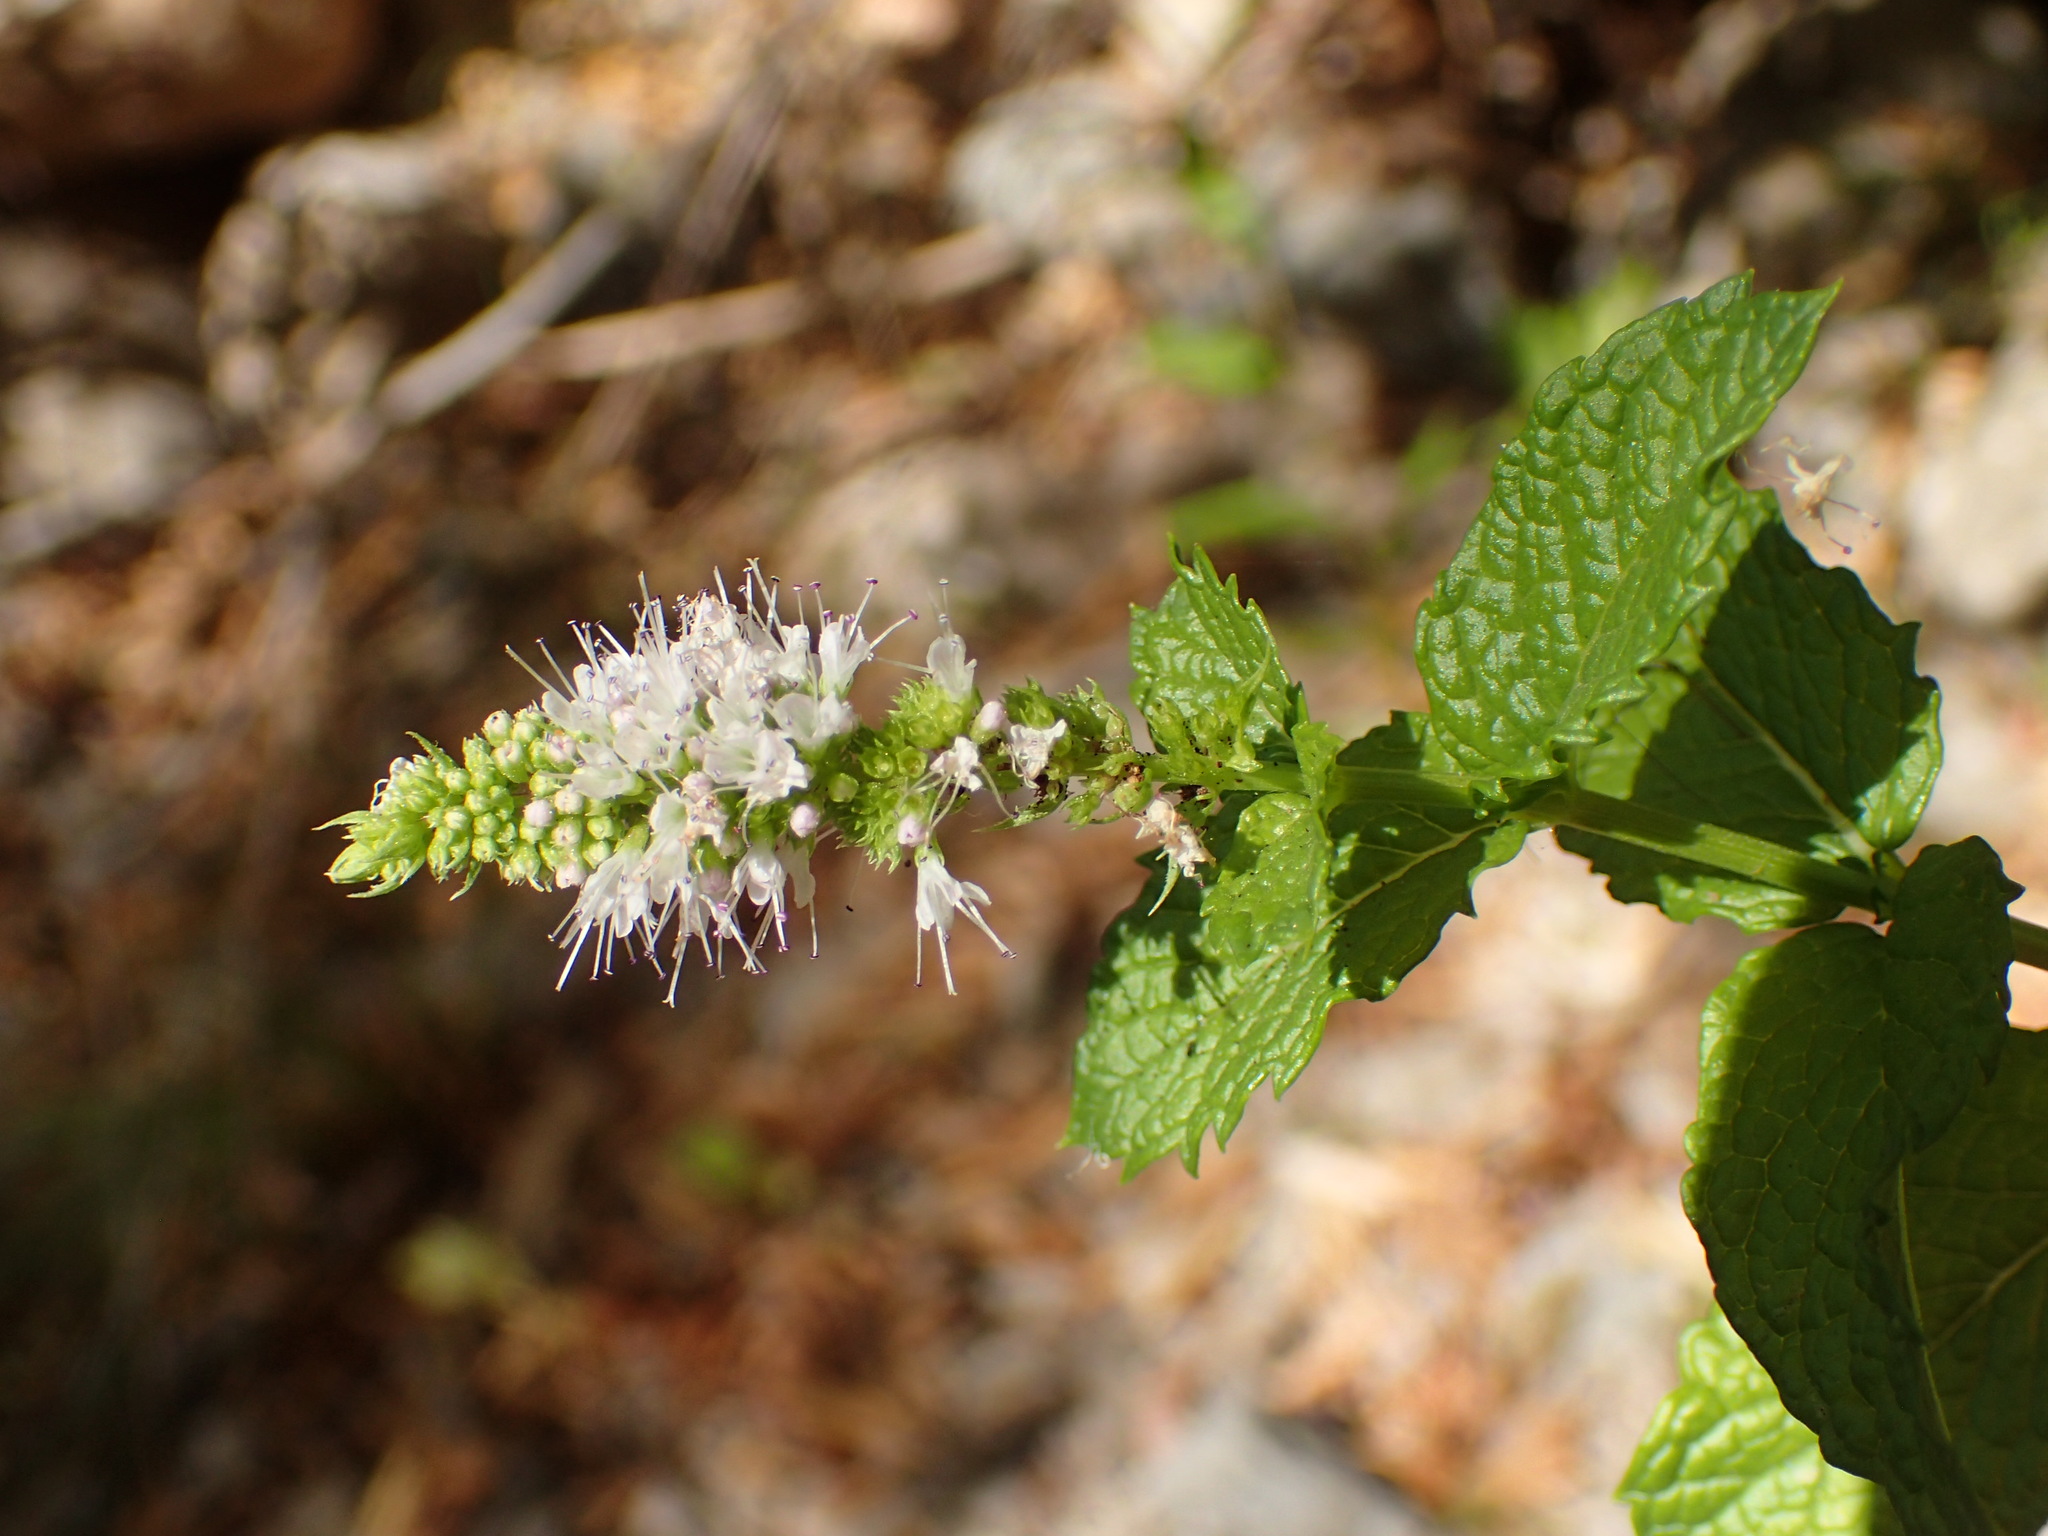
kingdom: Plantae
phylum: Tracheophyta
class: Magnoliopsida
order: Lamiales
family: Lamiaceae
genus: Mentha
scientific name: Mentha spicata
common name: Spearmint
